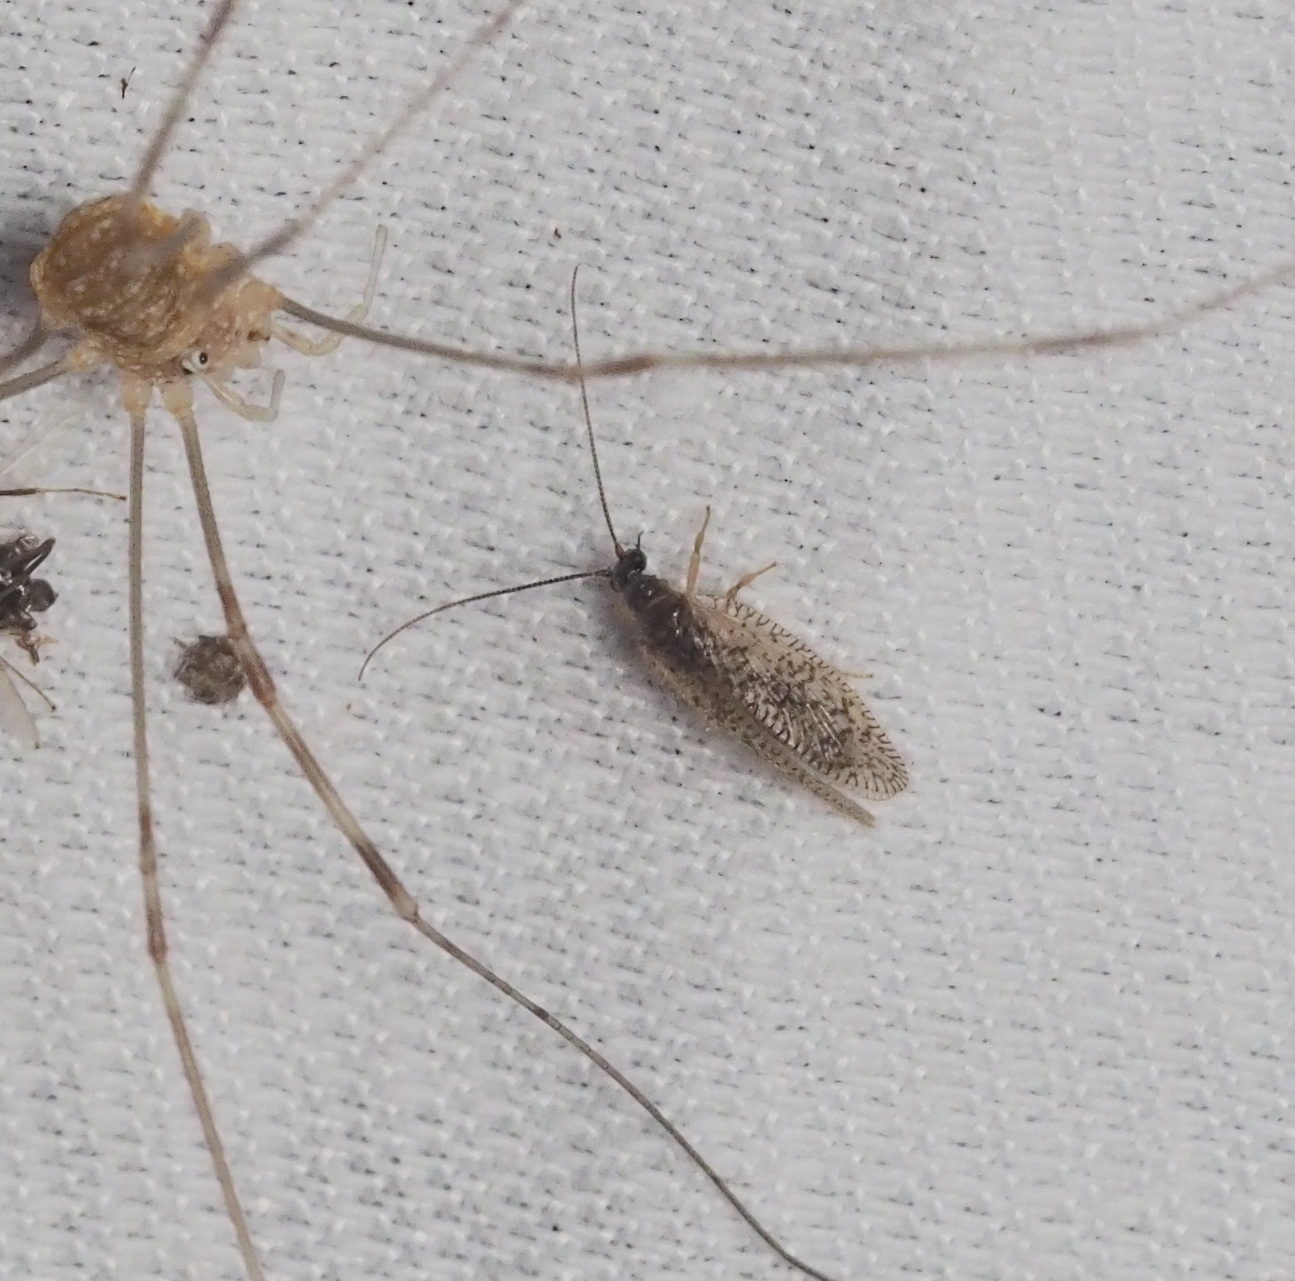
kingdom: Animalia
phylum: Arthropoda
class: Insecta
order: Neuroptera
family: Hemerobiidae
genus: Psectra
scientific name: Psectra diptera
